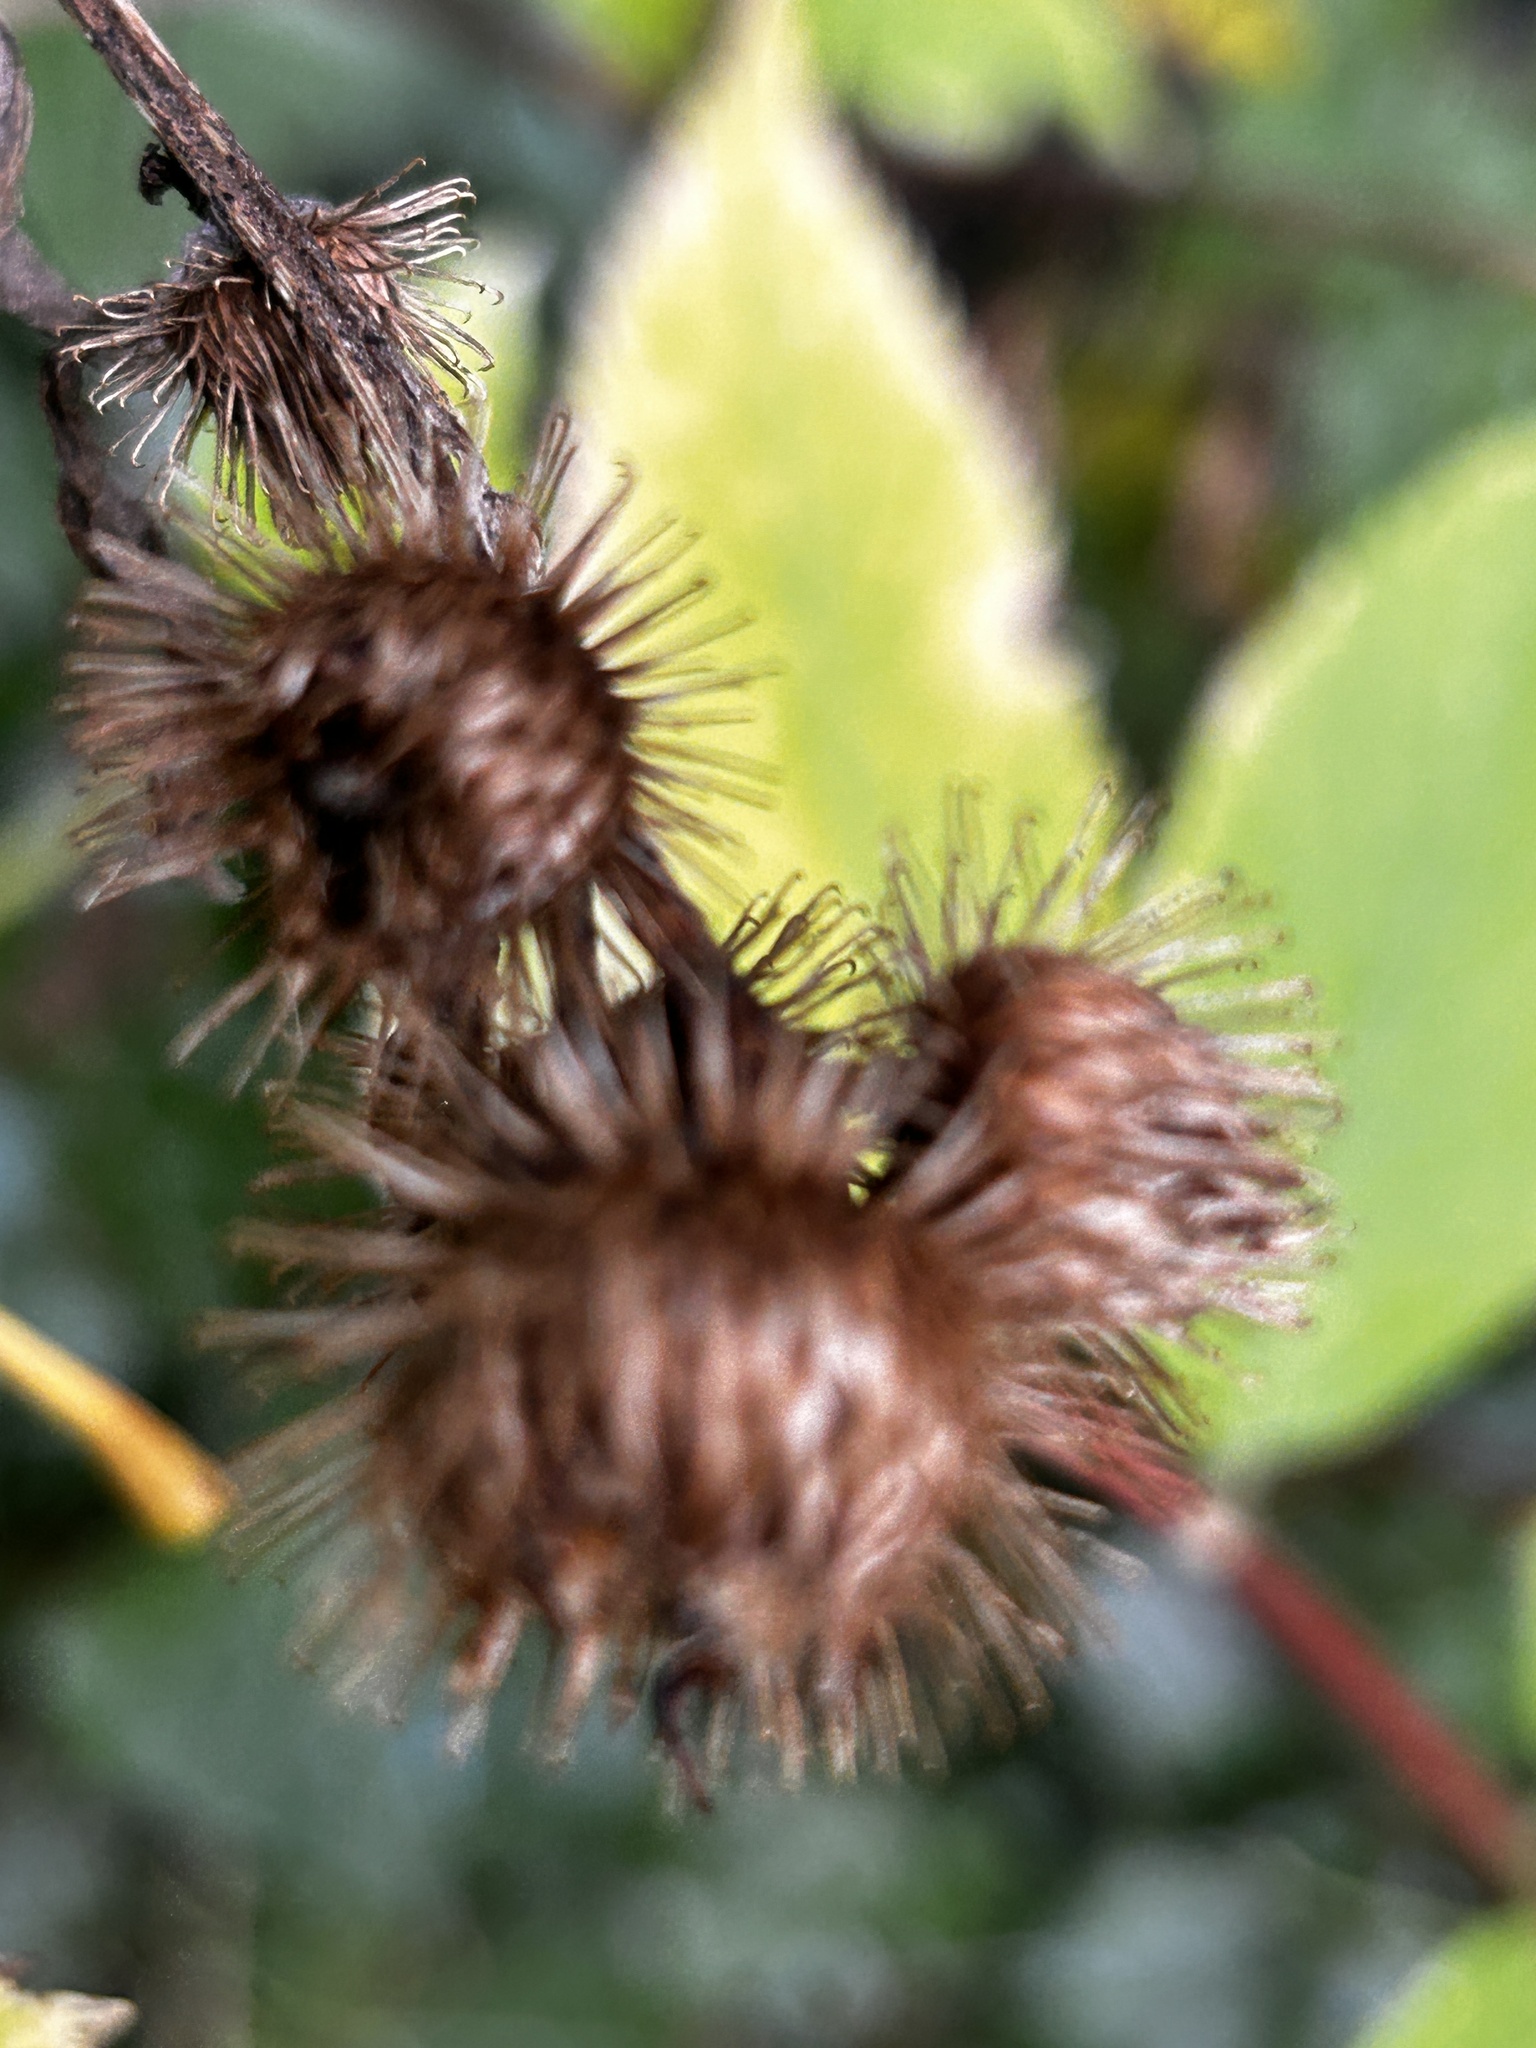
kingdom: Plantae
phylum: Tracheophyta
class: Magnoliopsida
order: Asterales
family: Asteraceae
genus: Arctium
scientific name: Arctium minus
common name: Lesser burdock
